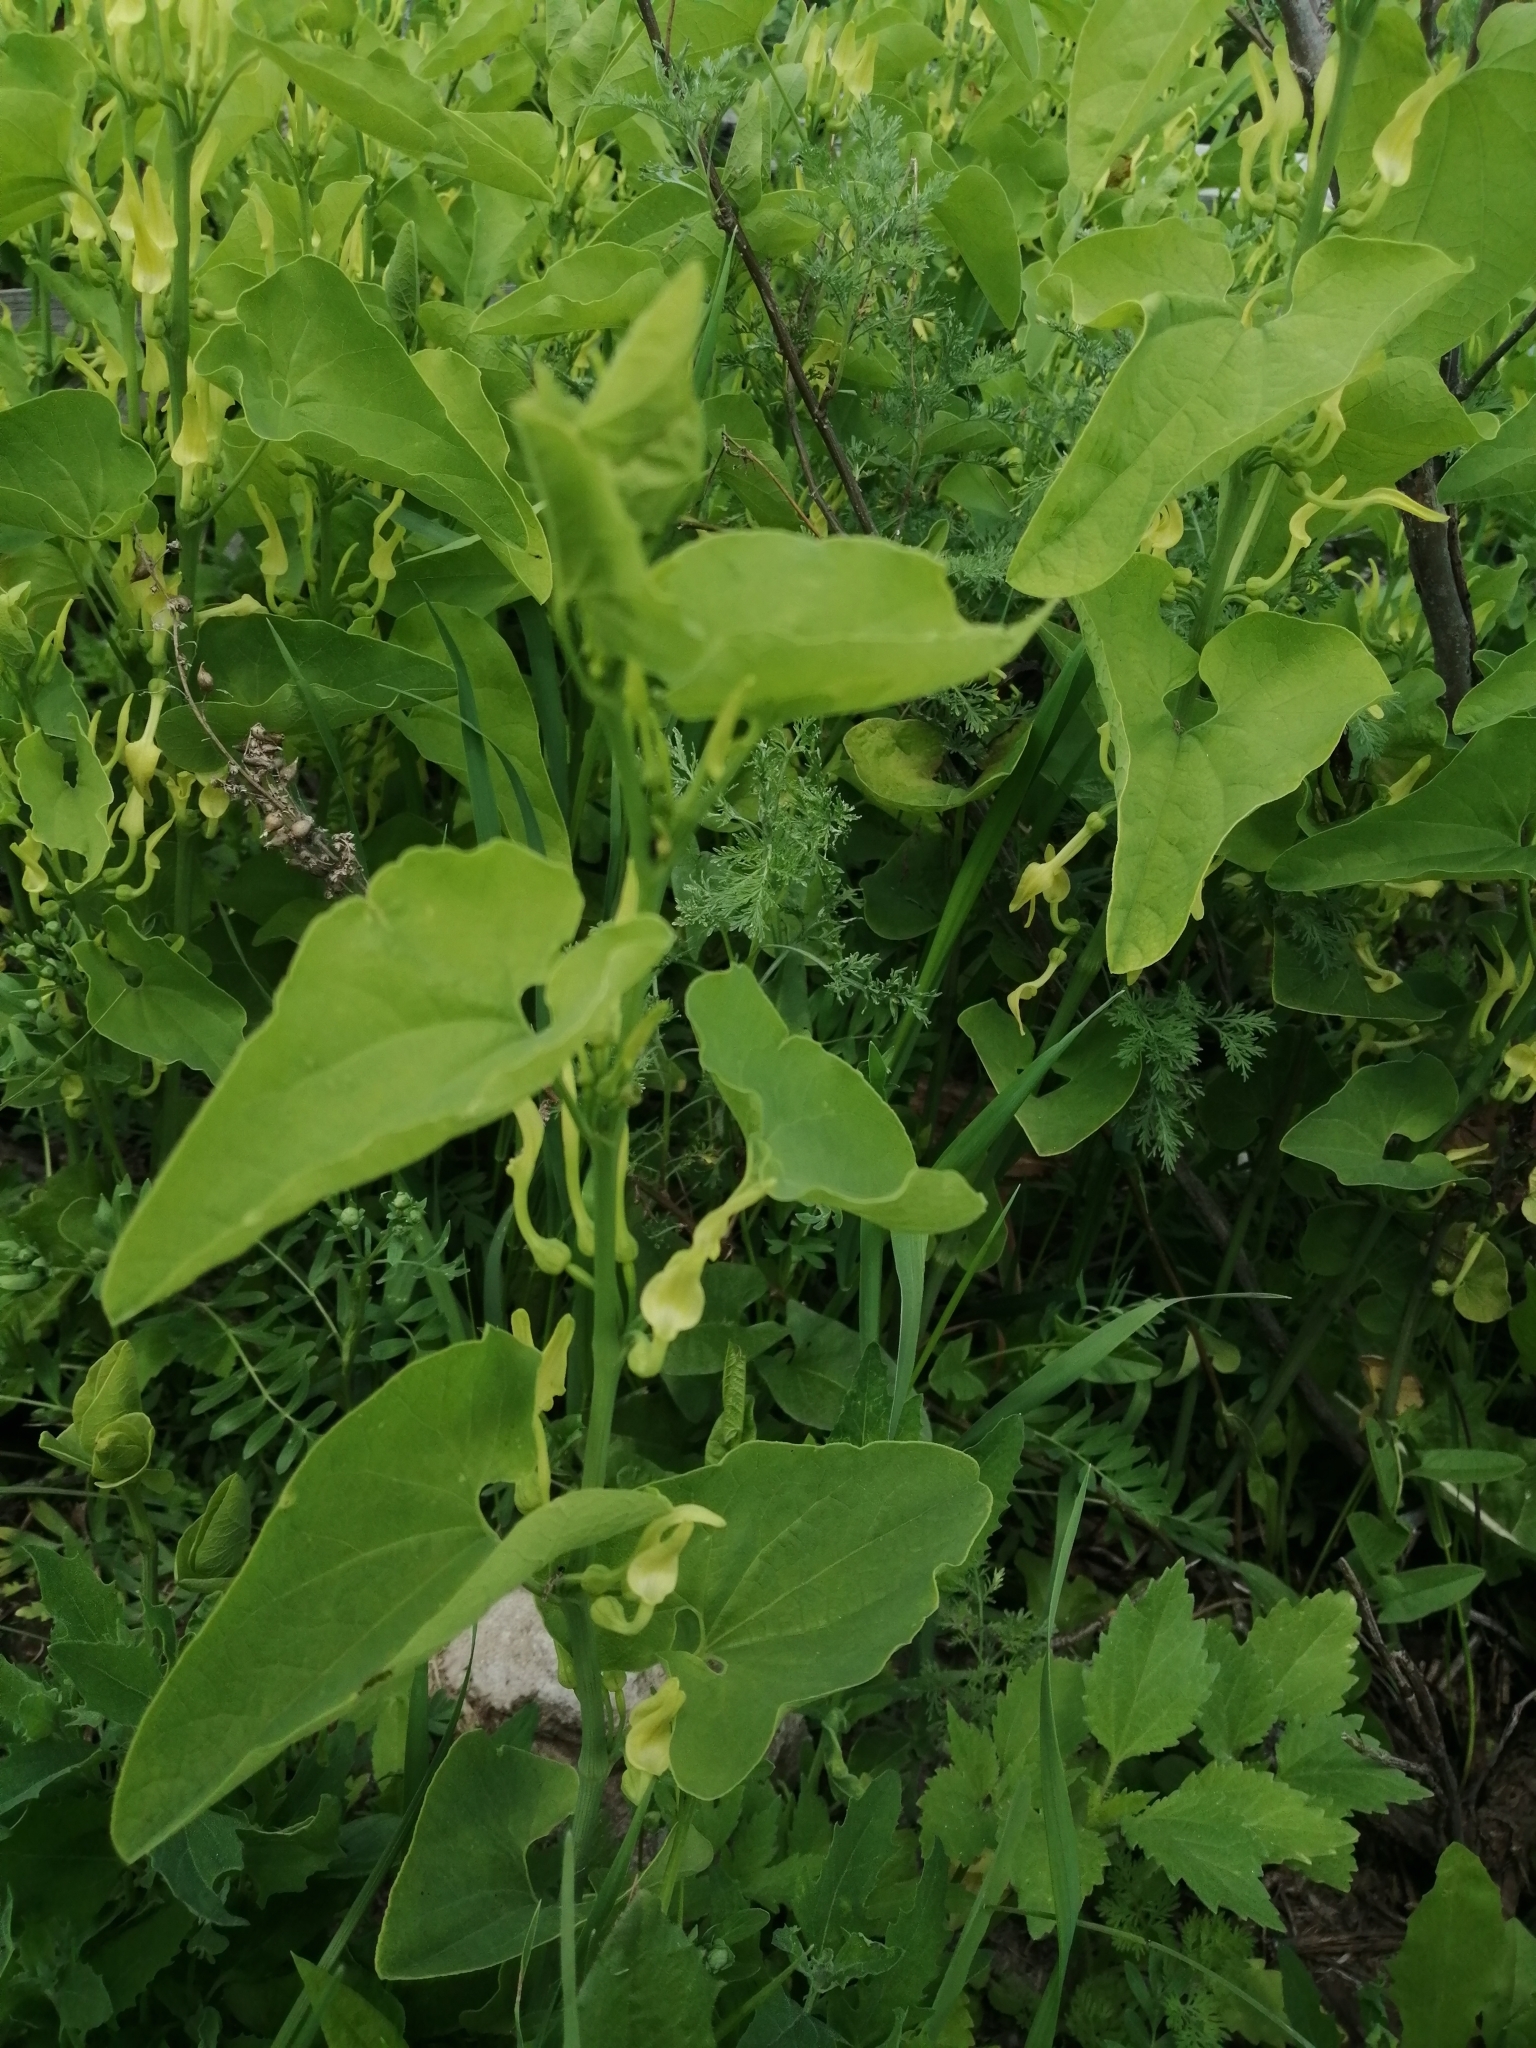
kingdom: Plantae
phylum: Tracheophyta
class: Magnoliopsida
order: Piperales
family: Aristolochiaceae
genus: Aristolochia
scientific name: Aristolochia clematitis
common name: Birthwort
